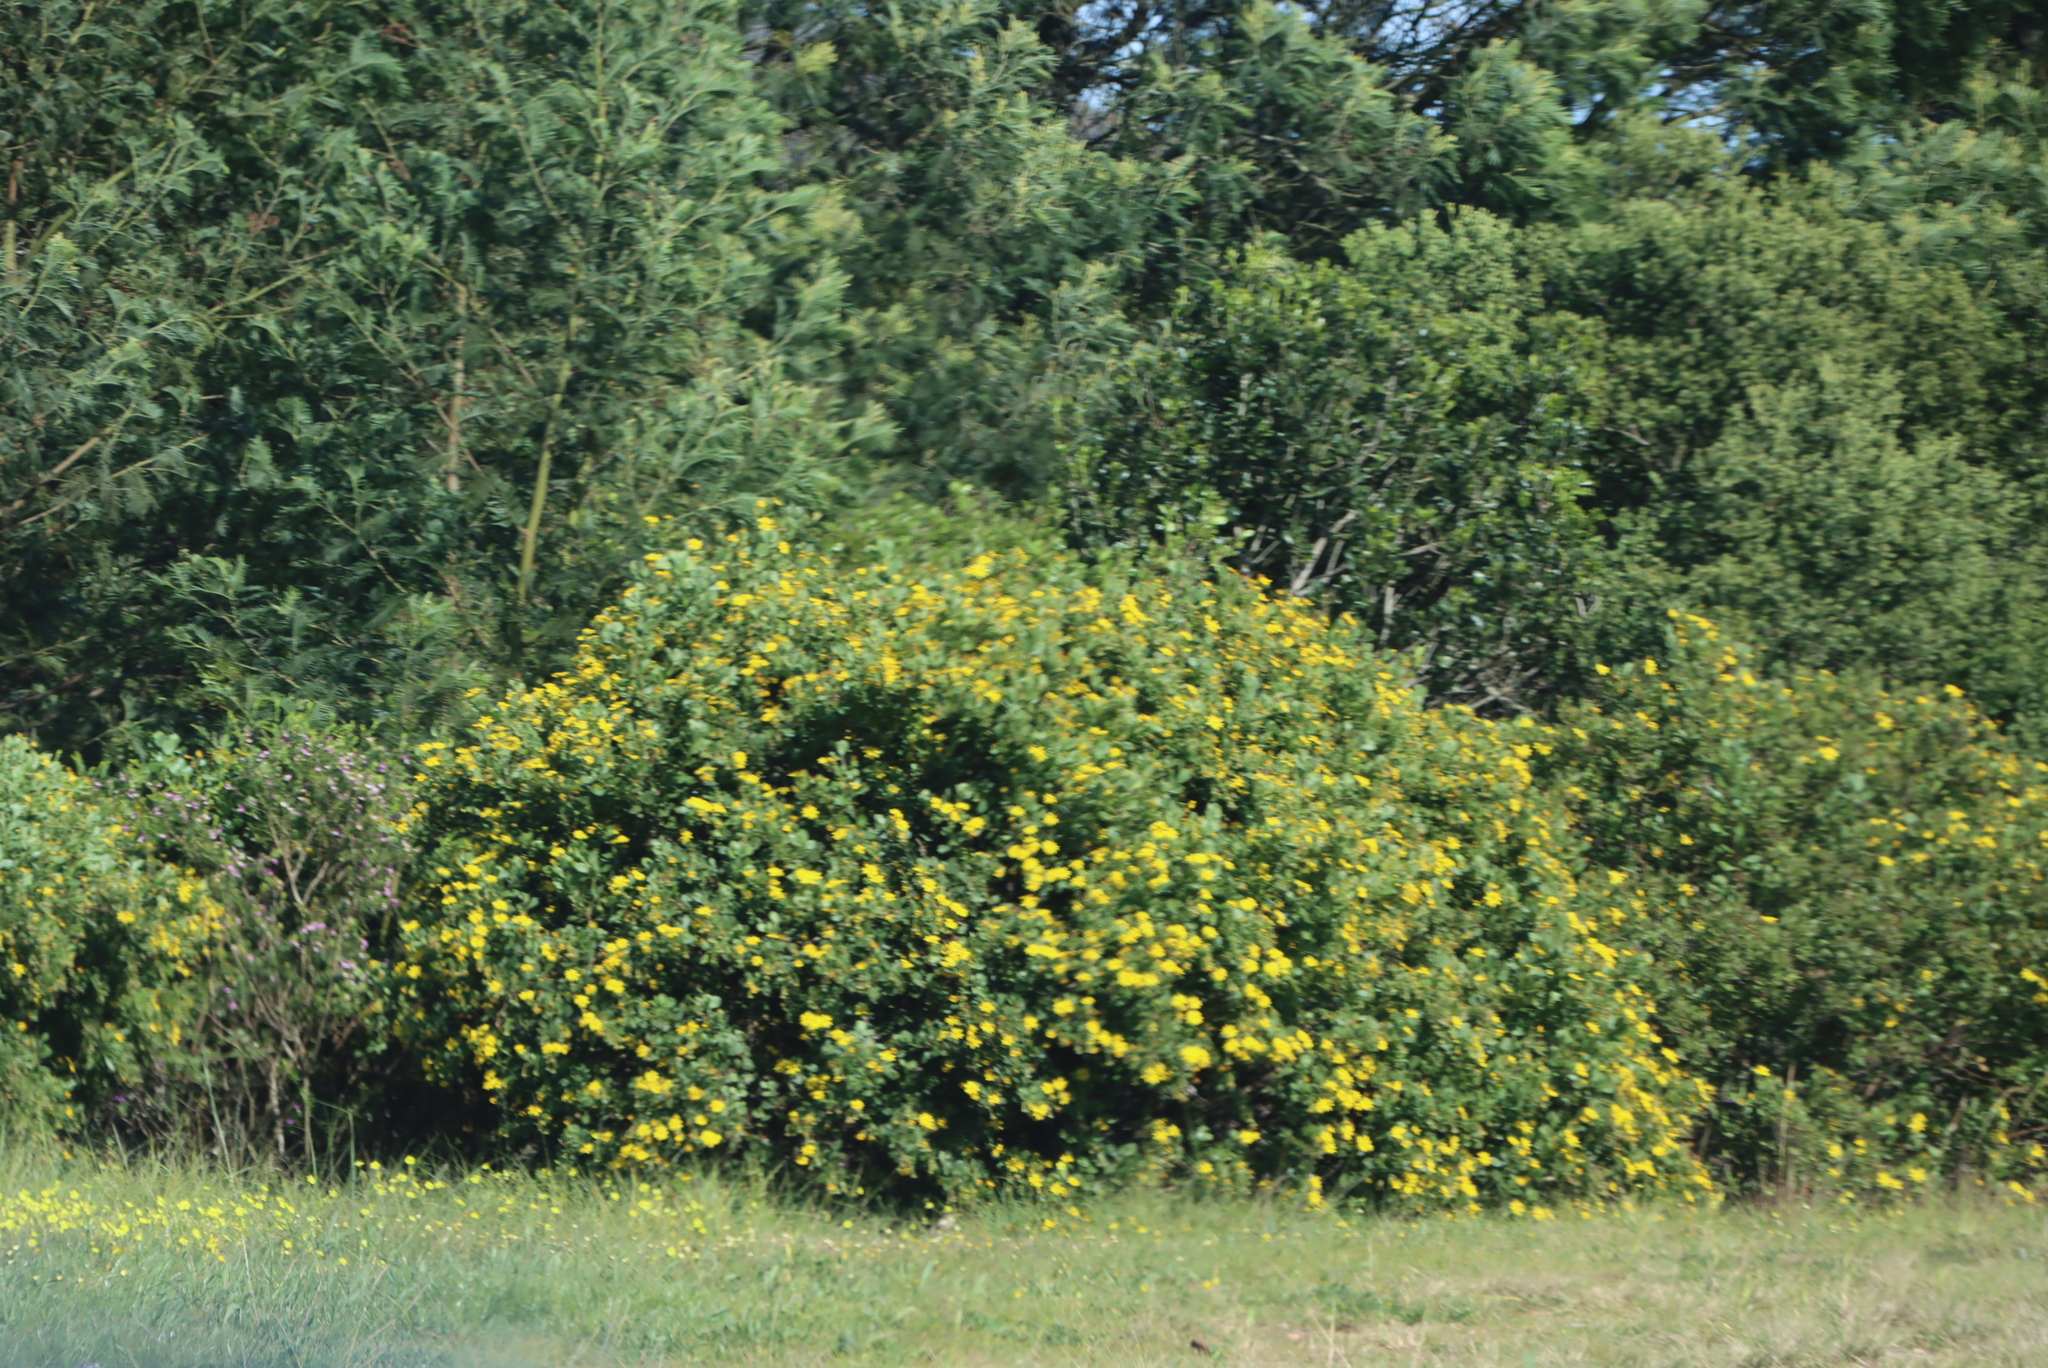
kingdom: Plantae
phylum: Tracheophyta
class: Magnoliopsida
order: Asterales
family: Asteraceae
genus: Osteospermum
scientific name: Osteospermum moniliferum
